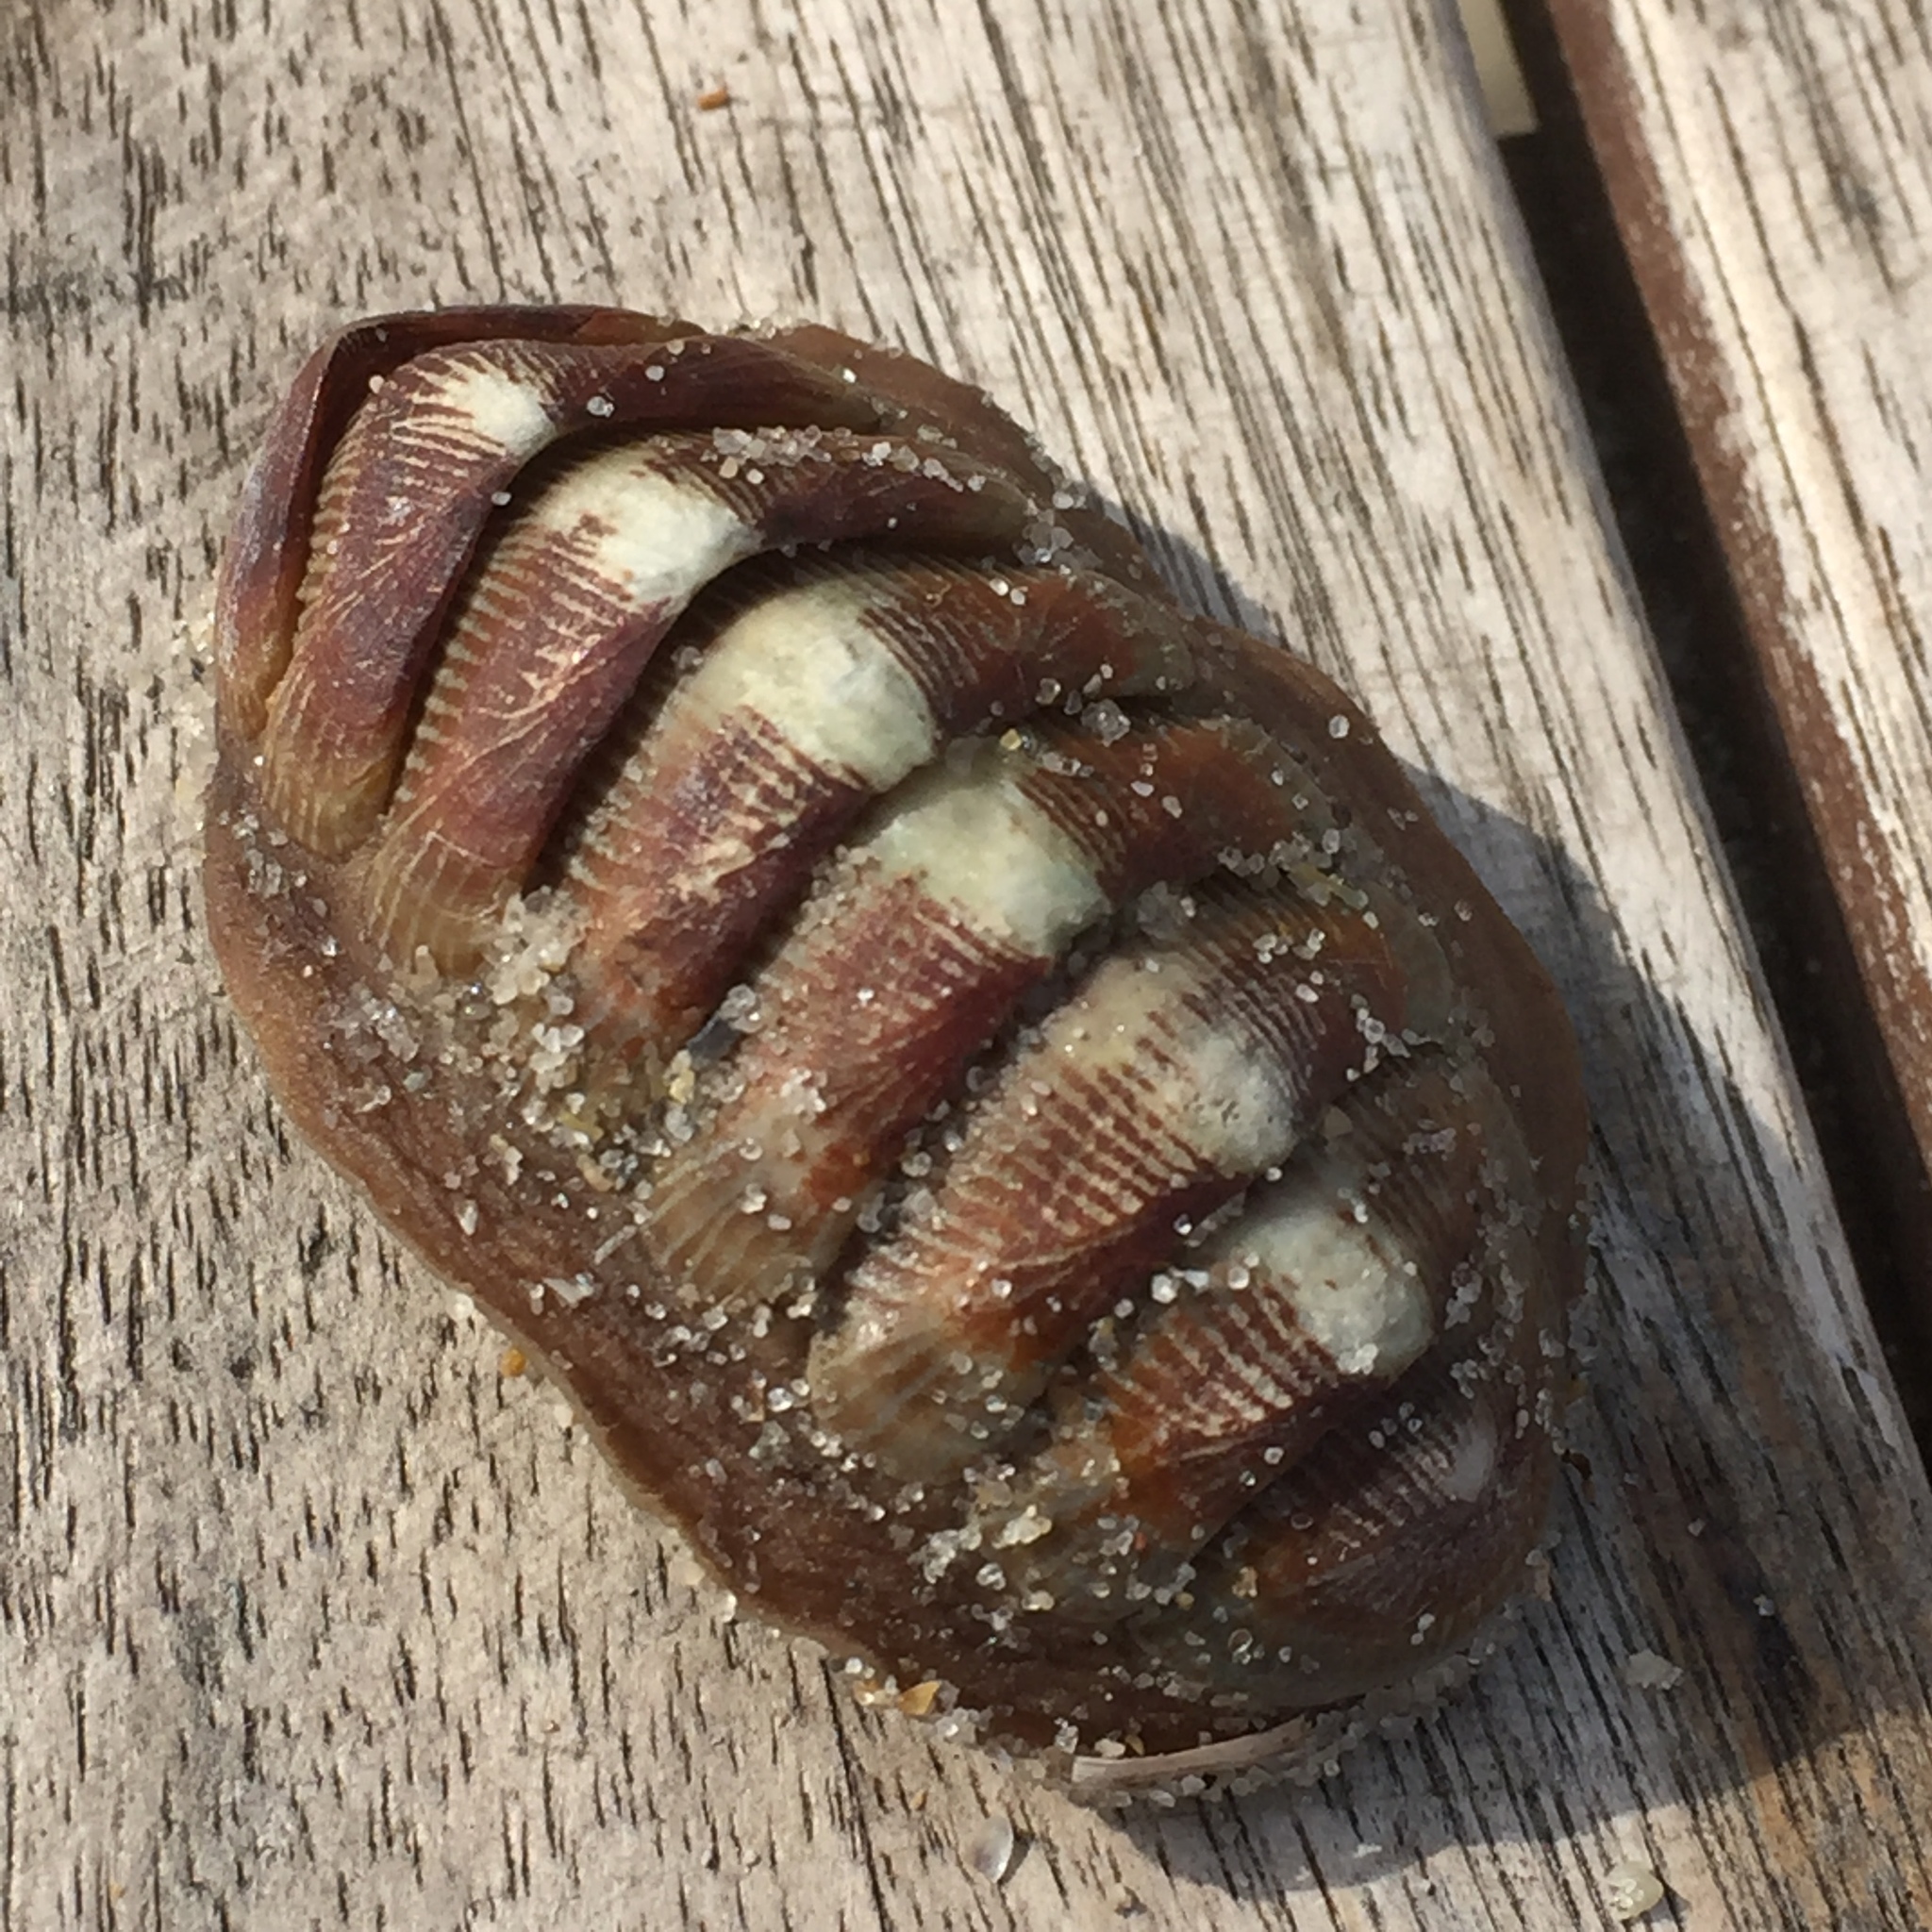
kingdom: Animalia
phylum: Mollusca
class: Polyplacophora
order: Chitonida
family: Chaetopleuridae
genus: Chaetopleura
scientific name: Chaetopleura angulata
